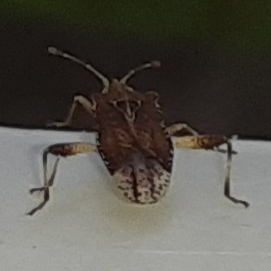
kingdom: Animalia
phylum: Arthropoda
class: Insecta
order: Hemiptera
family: Rhopalidae
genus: Harmostes
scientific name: Harmostes fraterculus
